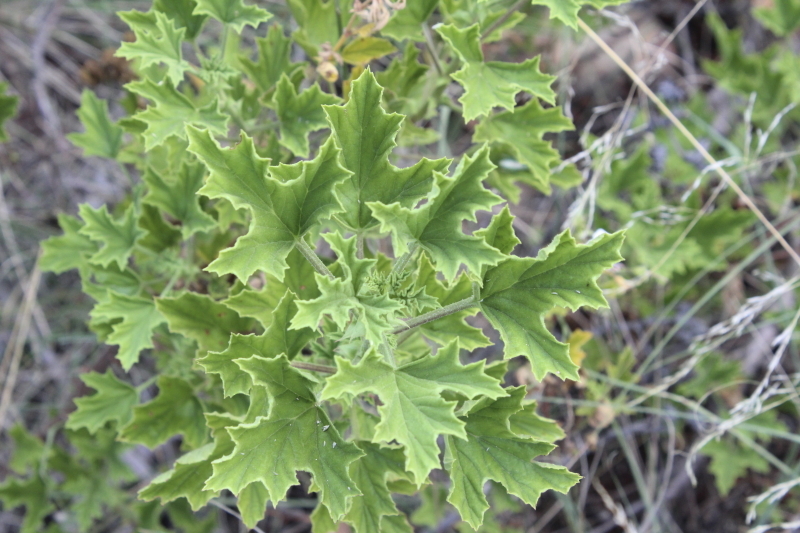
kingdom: Plantae
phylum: Tracheophyta
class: Magnoliopsida
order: Geraniales
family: Geraniaceae
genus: Pelargonium
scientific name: Pelargonium ribifolium
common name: Currant-leaf pelargonium
